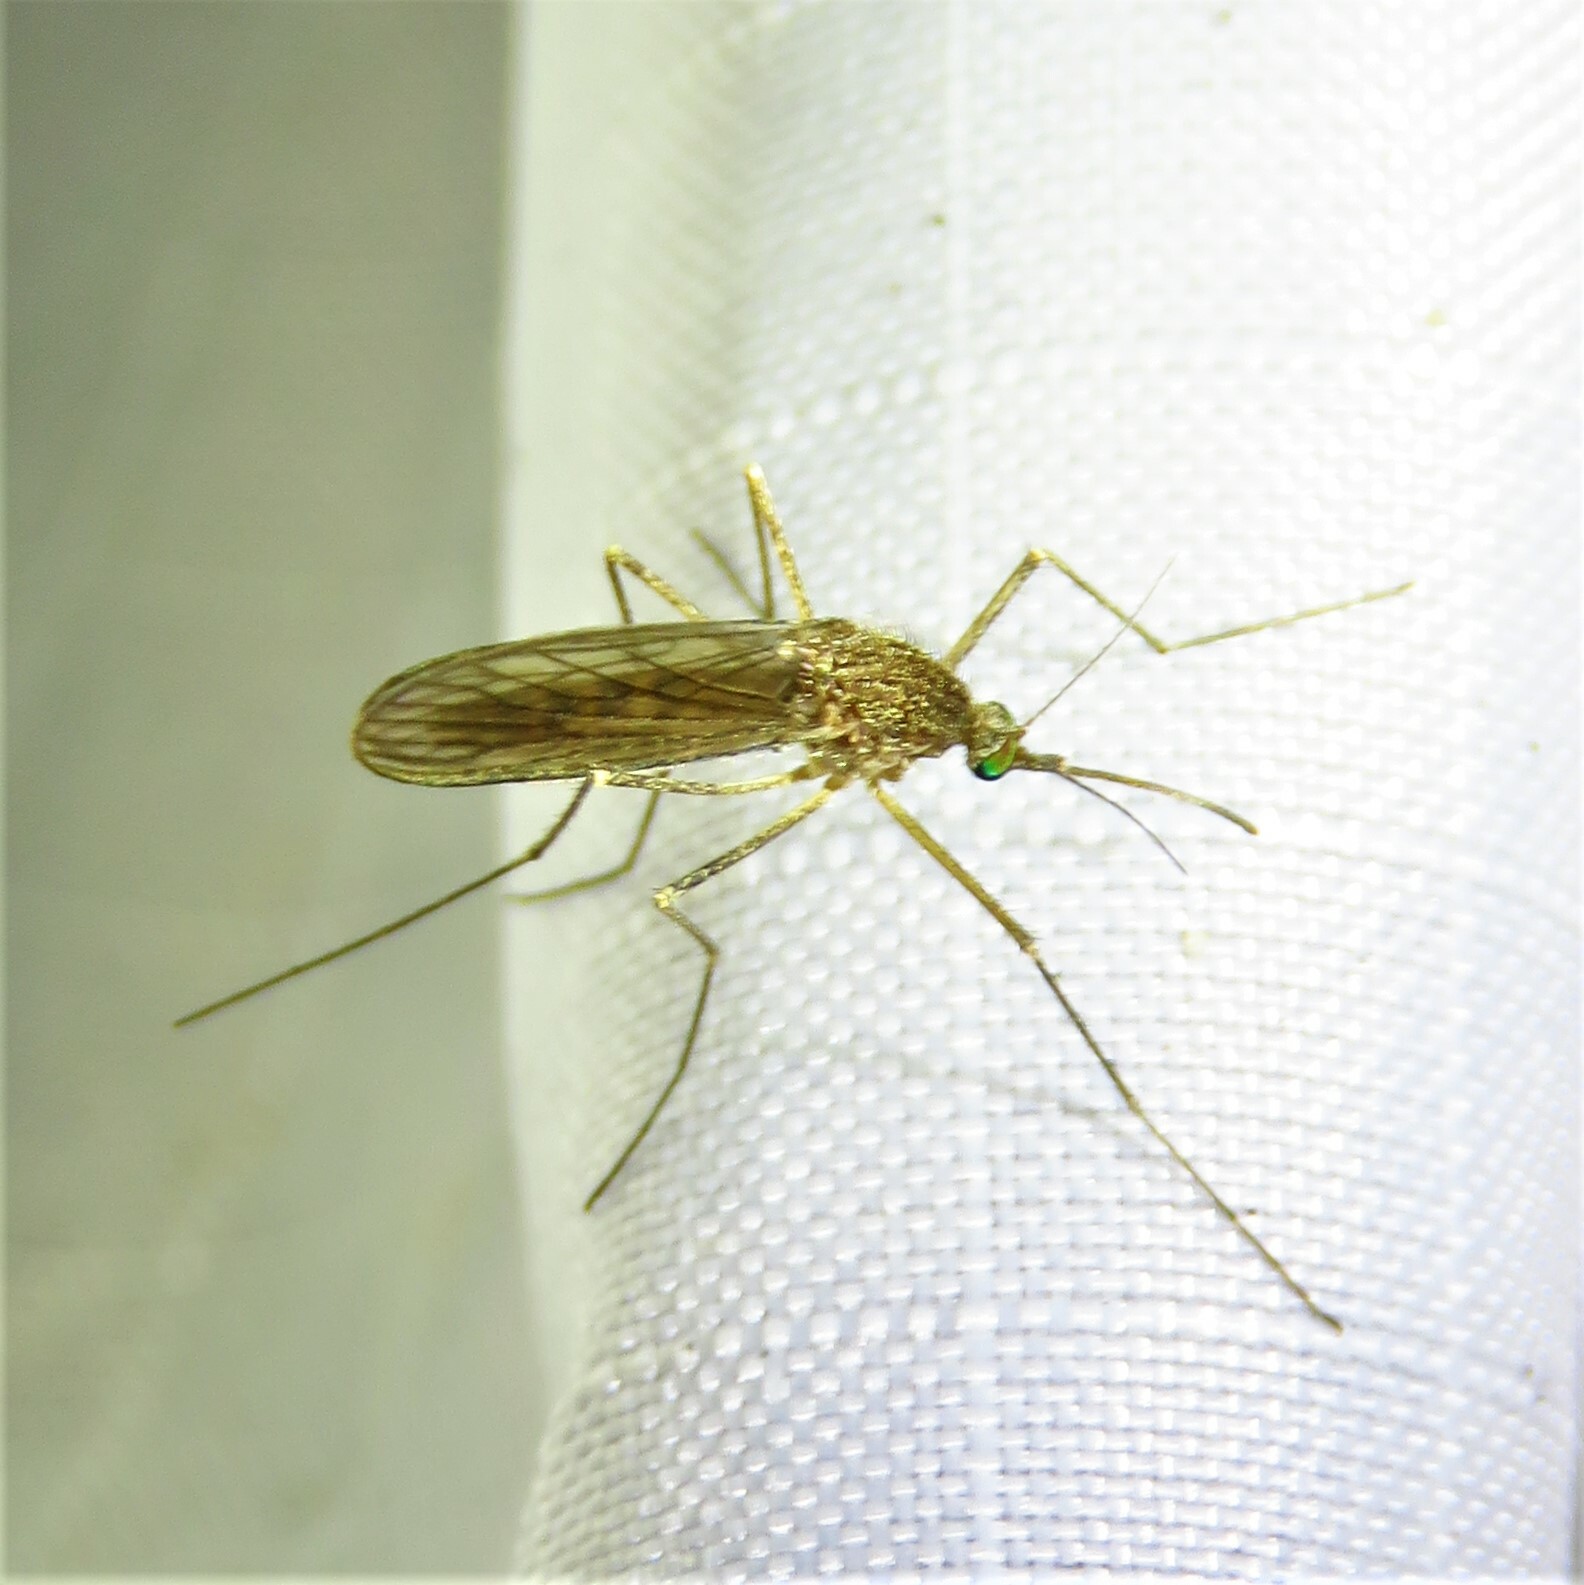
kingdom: Animalia
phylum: Arthropoda
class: Insecta
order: Diptera
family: Culicidae
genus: Culiseta
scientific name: Culiseta inornata
